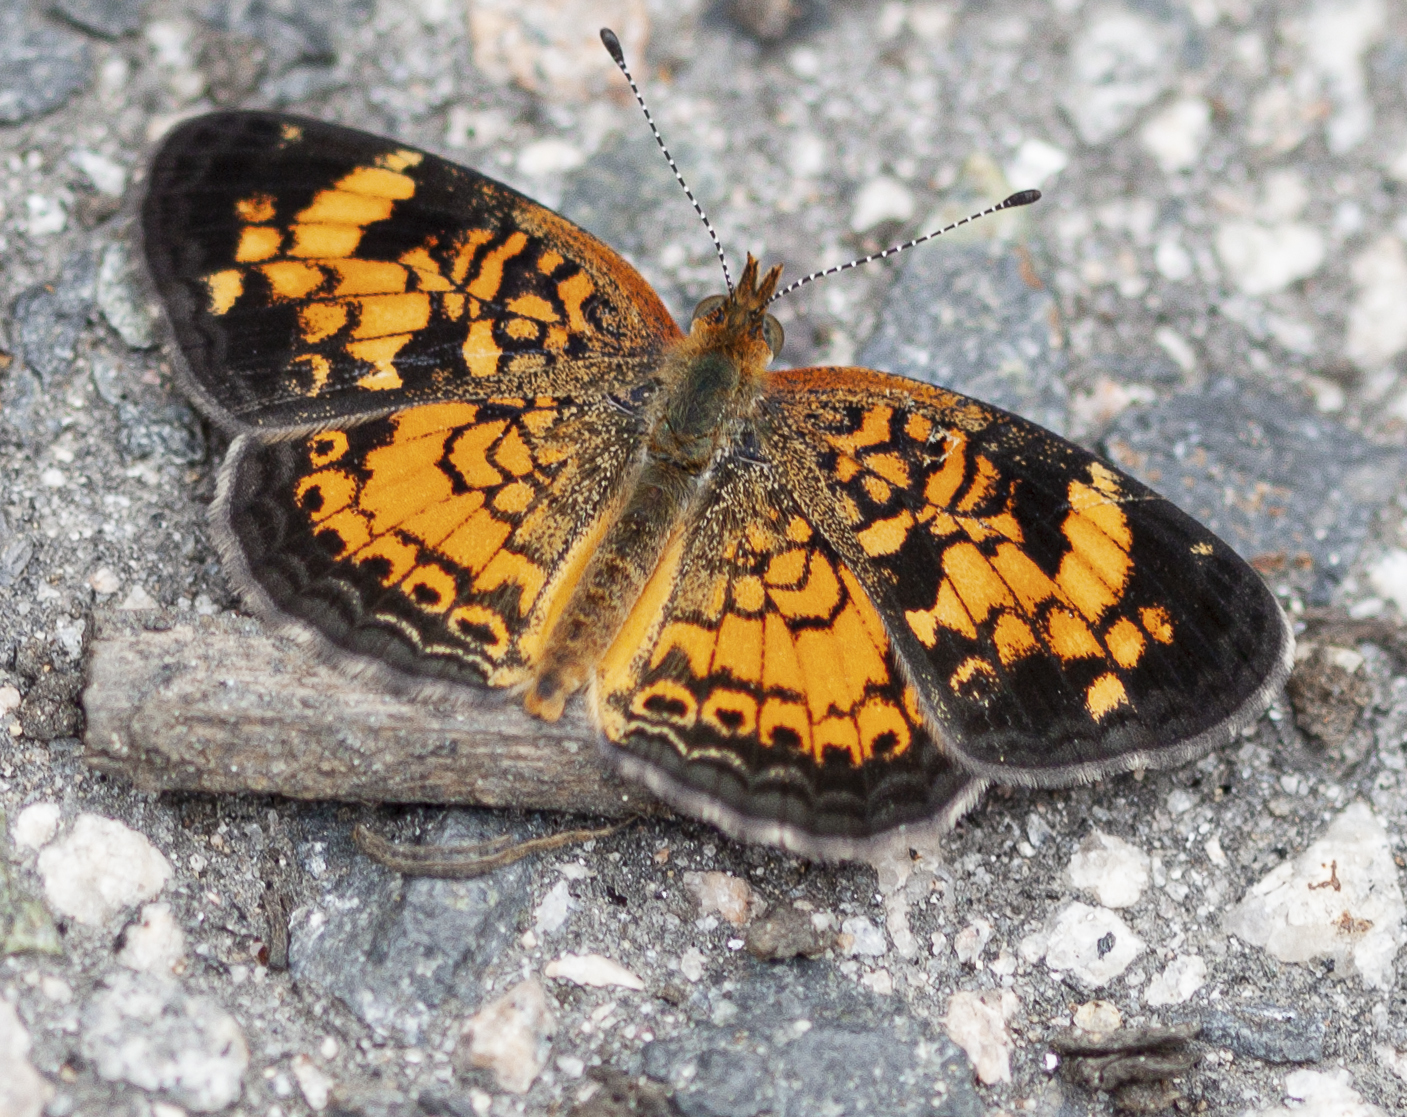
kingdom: Animalia
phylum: Arthropoda
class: Insecta
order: Lepidoptera
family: Nymphalidae
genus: Phyciodes
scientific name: Phyciodes tharos
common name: Pearl crescent
